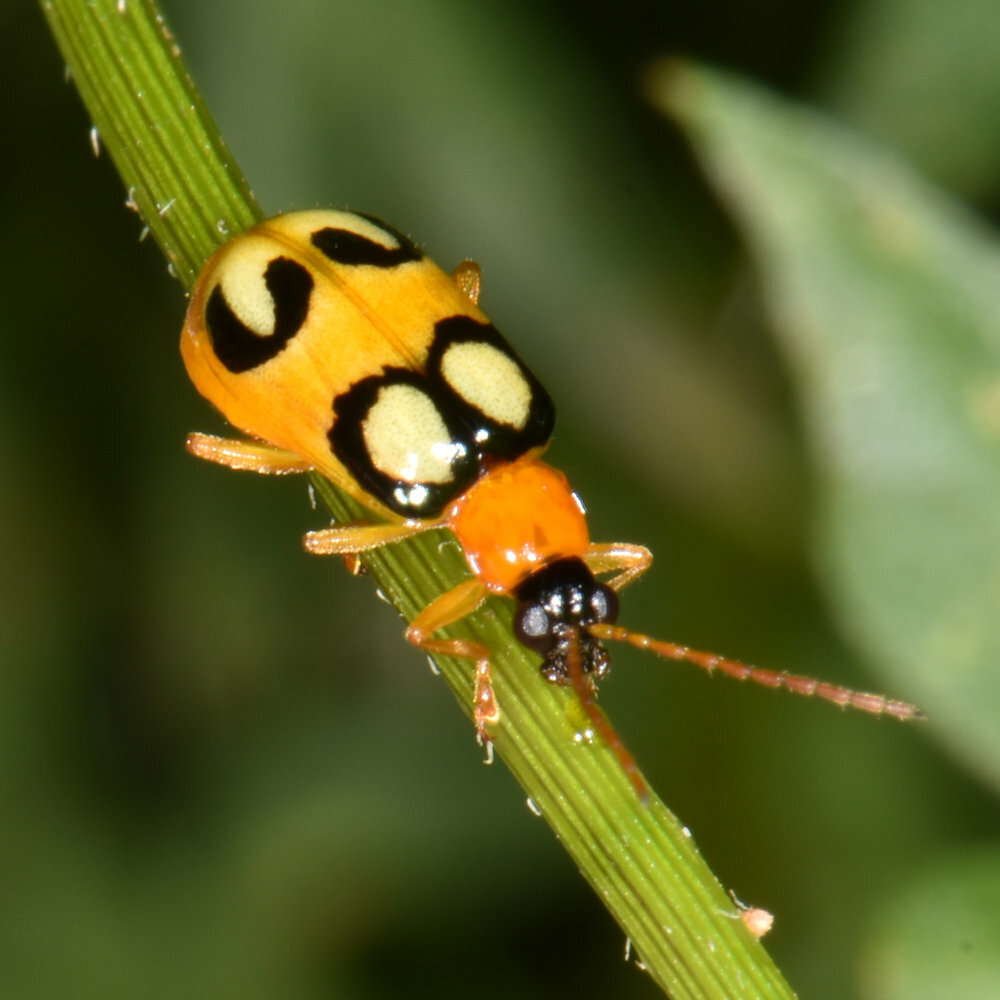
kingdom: Animalia
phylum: Arthropoda
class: Insecta
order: Coleoptera
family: Chrysomelidae
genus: Diabrotica
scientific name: Diabrotica circulata
